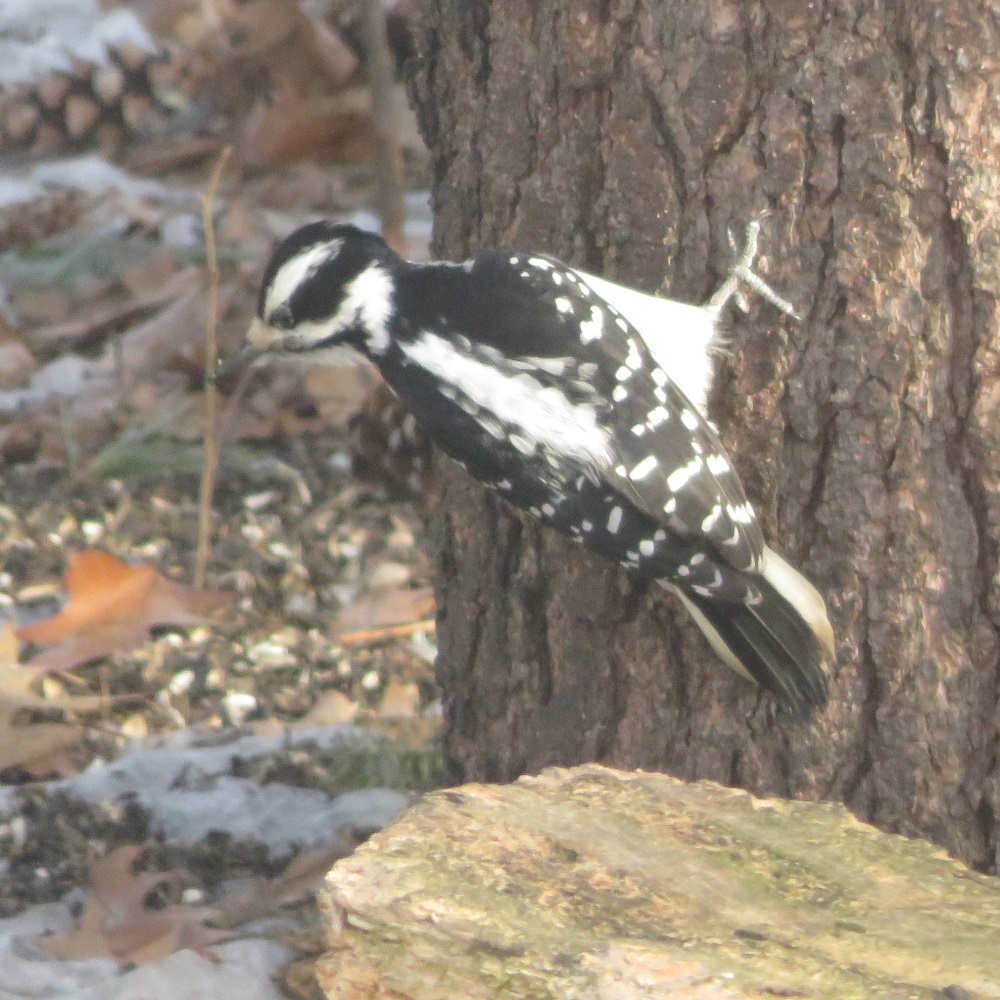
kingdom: Animalia
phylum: Chordata
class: Aves
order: Piciformes
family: Picidae
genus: Leuconotopicus
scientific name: Leuconotopicus villosus
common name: Hairy woodpecker
